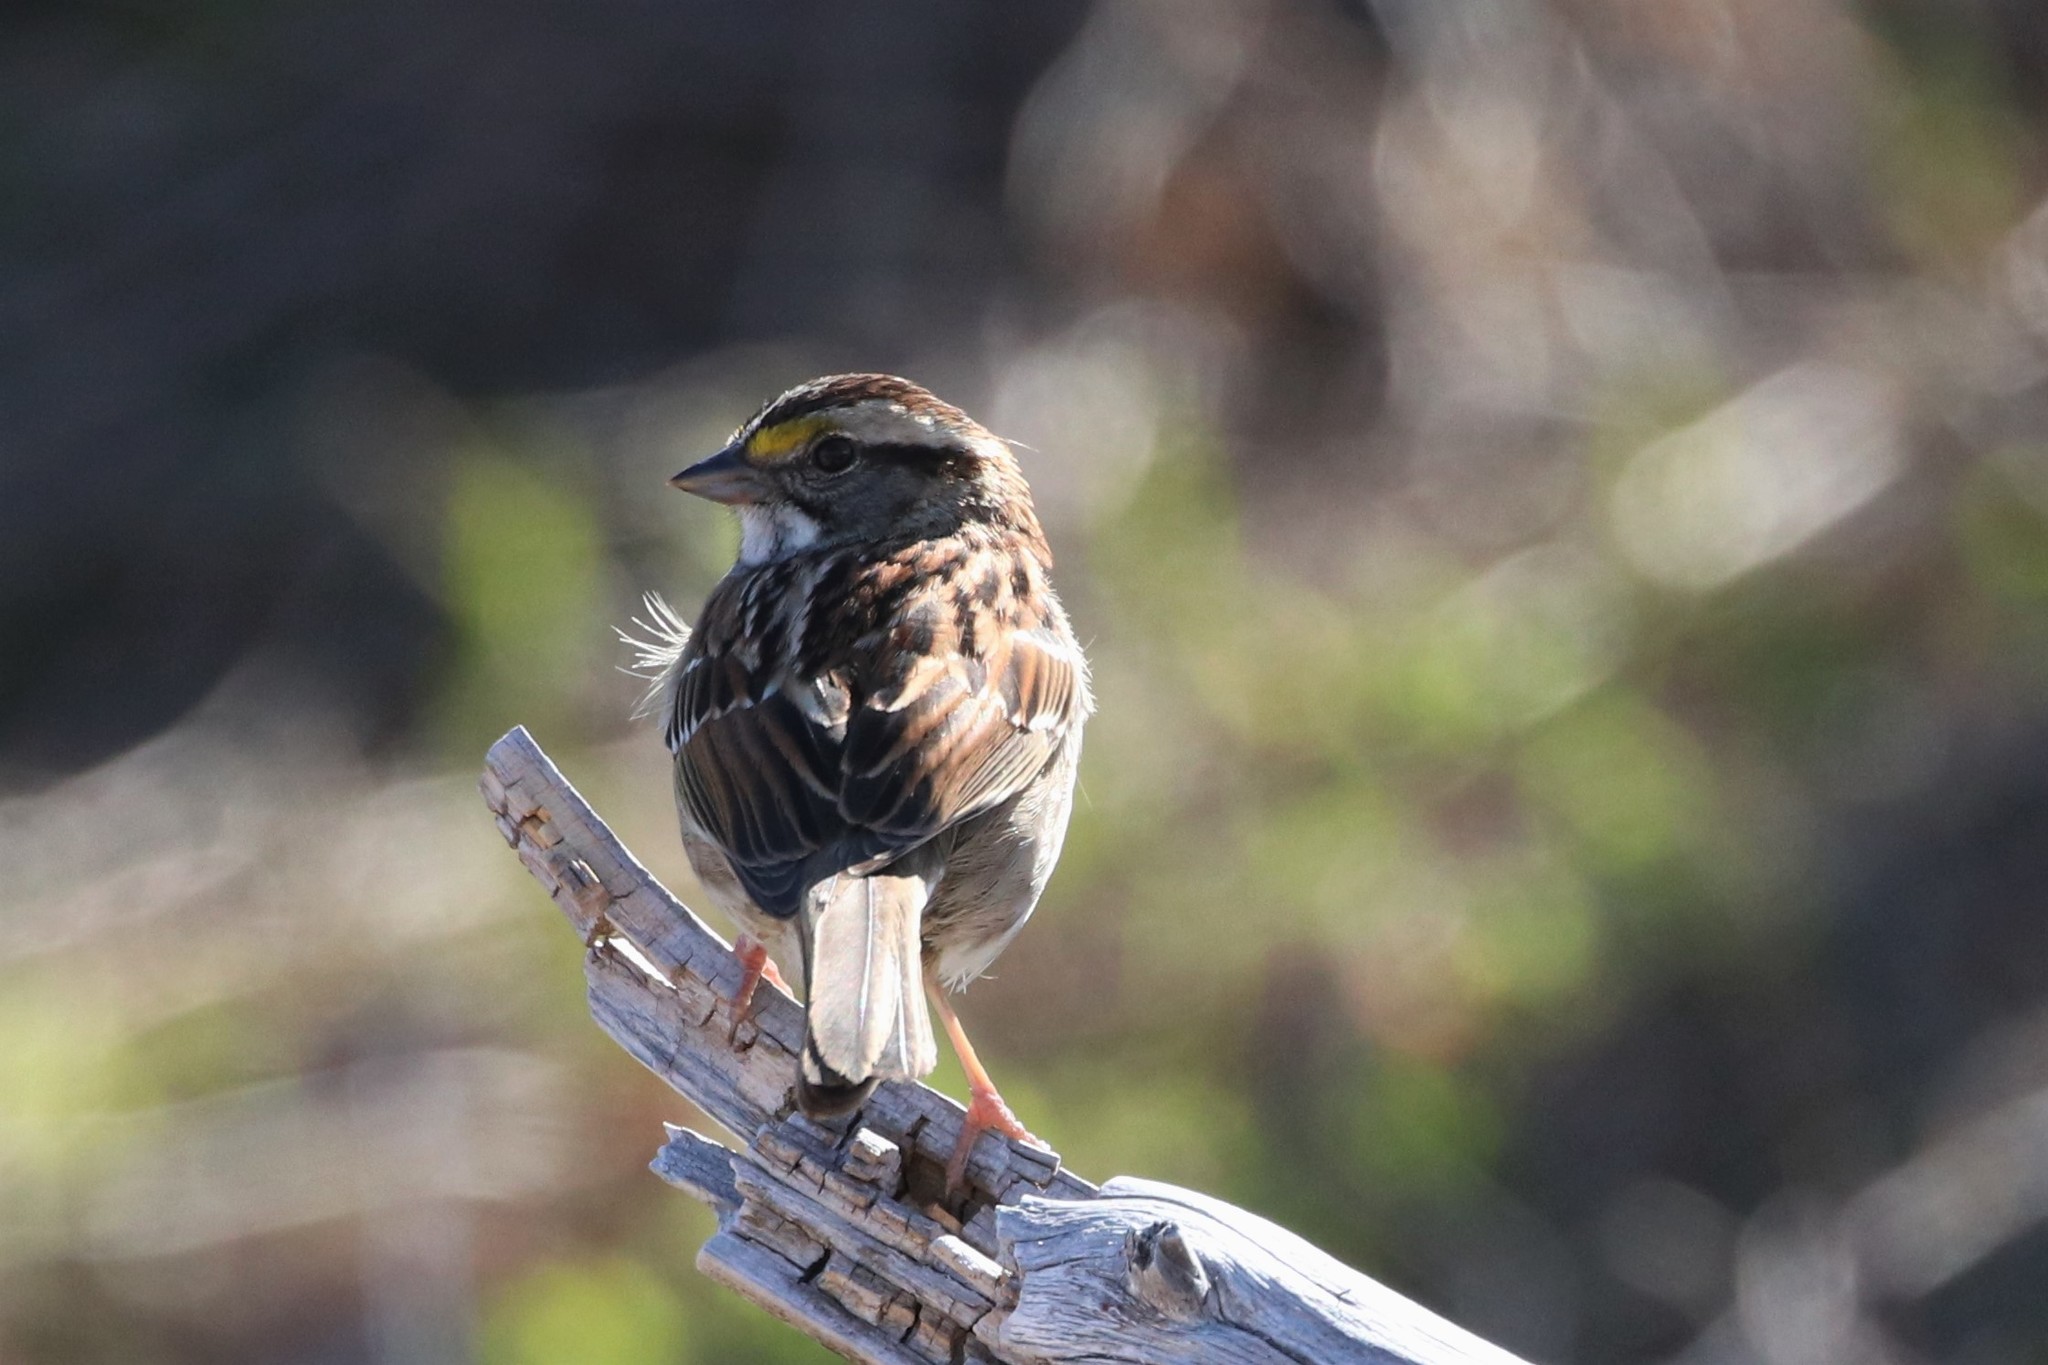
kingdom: Animalia
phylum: Chordata
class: Aves
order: Passeriformes
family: Passerellidae
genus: Zonotrichia
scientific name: Zonotrichia albicollis
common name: White-throated sparrow
